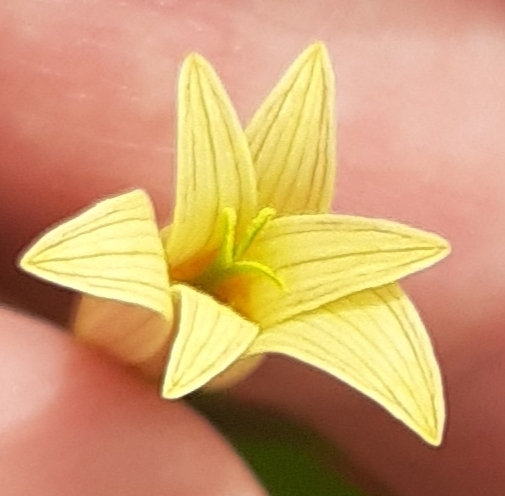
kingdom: Plantae
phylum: Tracheophyta
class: Liliopsida
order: Liliales
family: Colchicaceae
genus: Uvularia
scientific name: Uvularia sessilifolia
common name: Straw-lily
